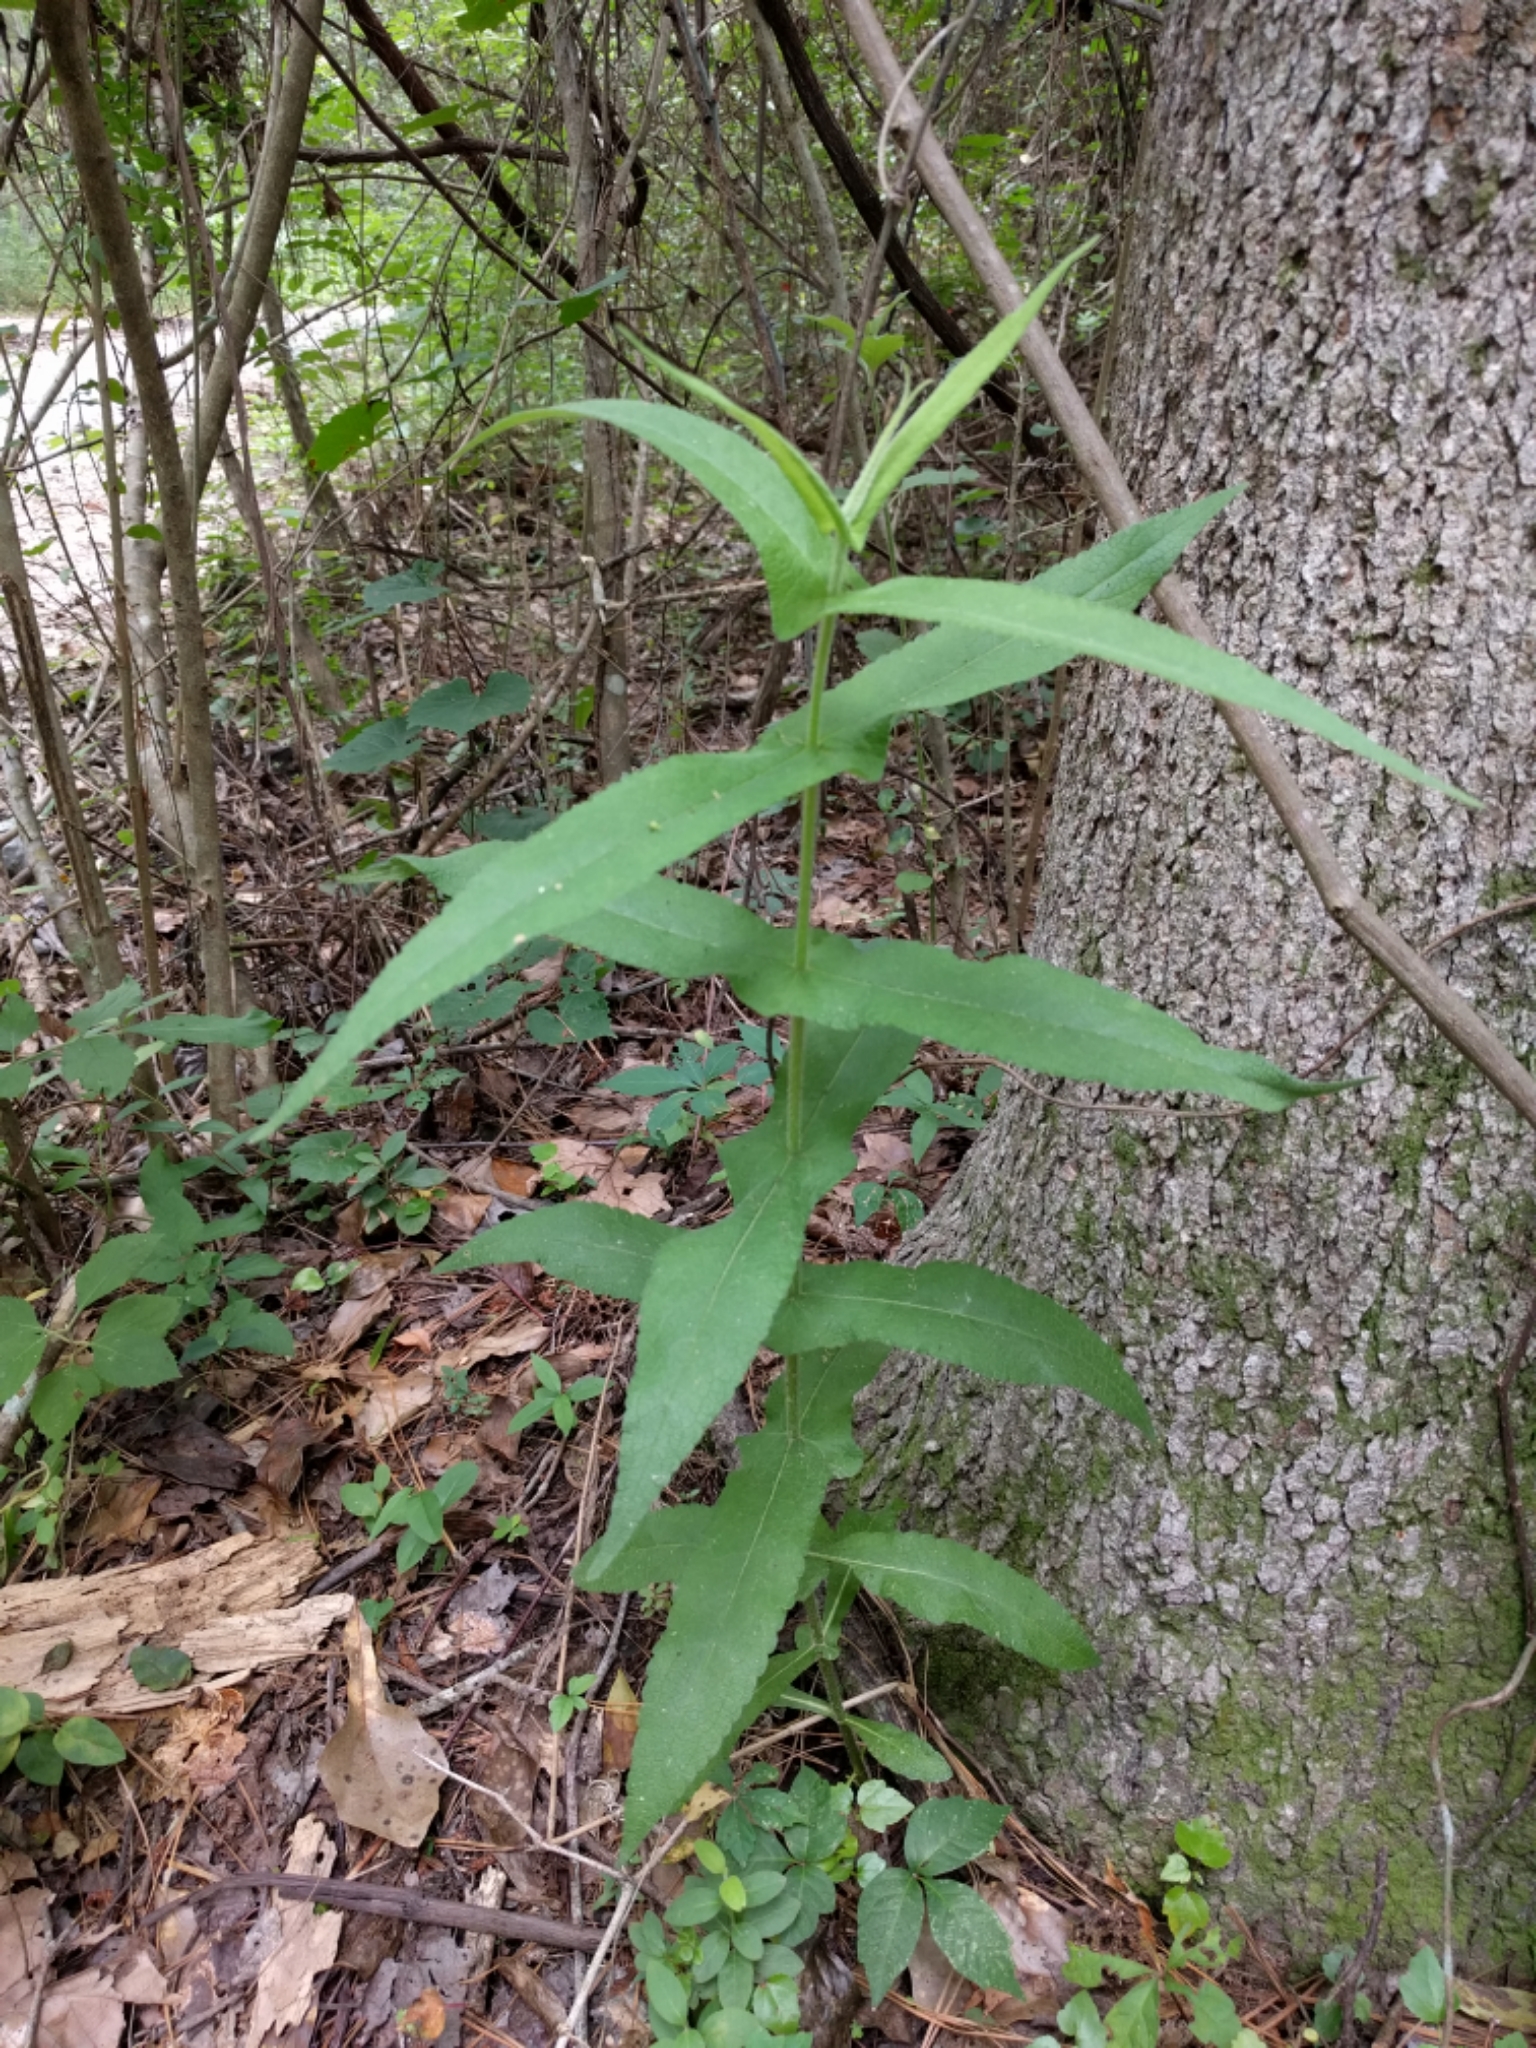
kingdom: Plantae
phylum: Tracheophyta
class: Magnoliopsida
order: Asterales
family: Asteraceae
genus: Eupatorium
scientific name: Eupatorium perfoliatum
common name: Boneset
